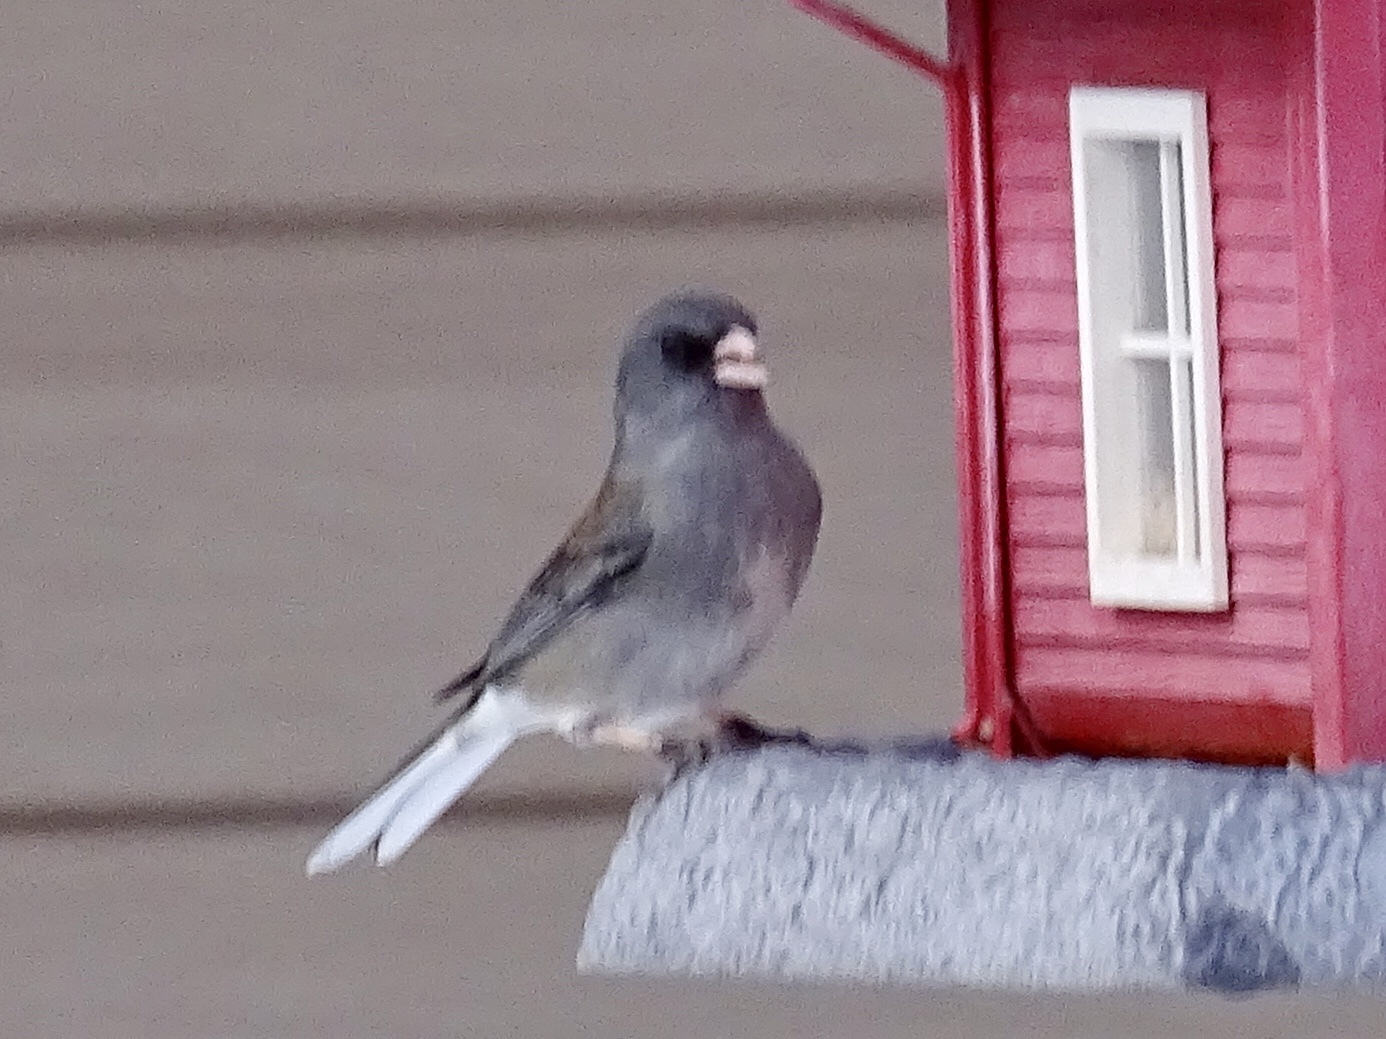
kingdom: Animalia
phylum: Chordata
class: Aves
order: Passeriformes
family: Passerellidae
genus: Junco
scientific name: Junco hyemalis
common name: Dark-eyed junco
